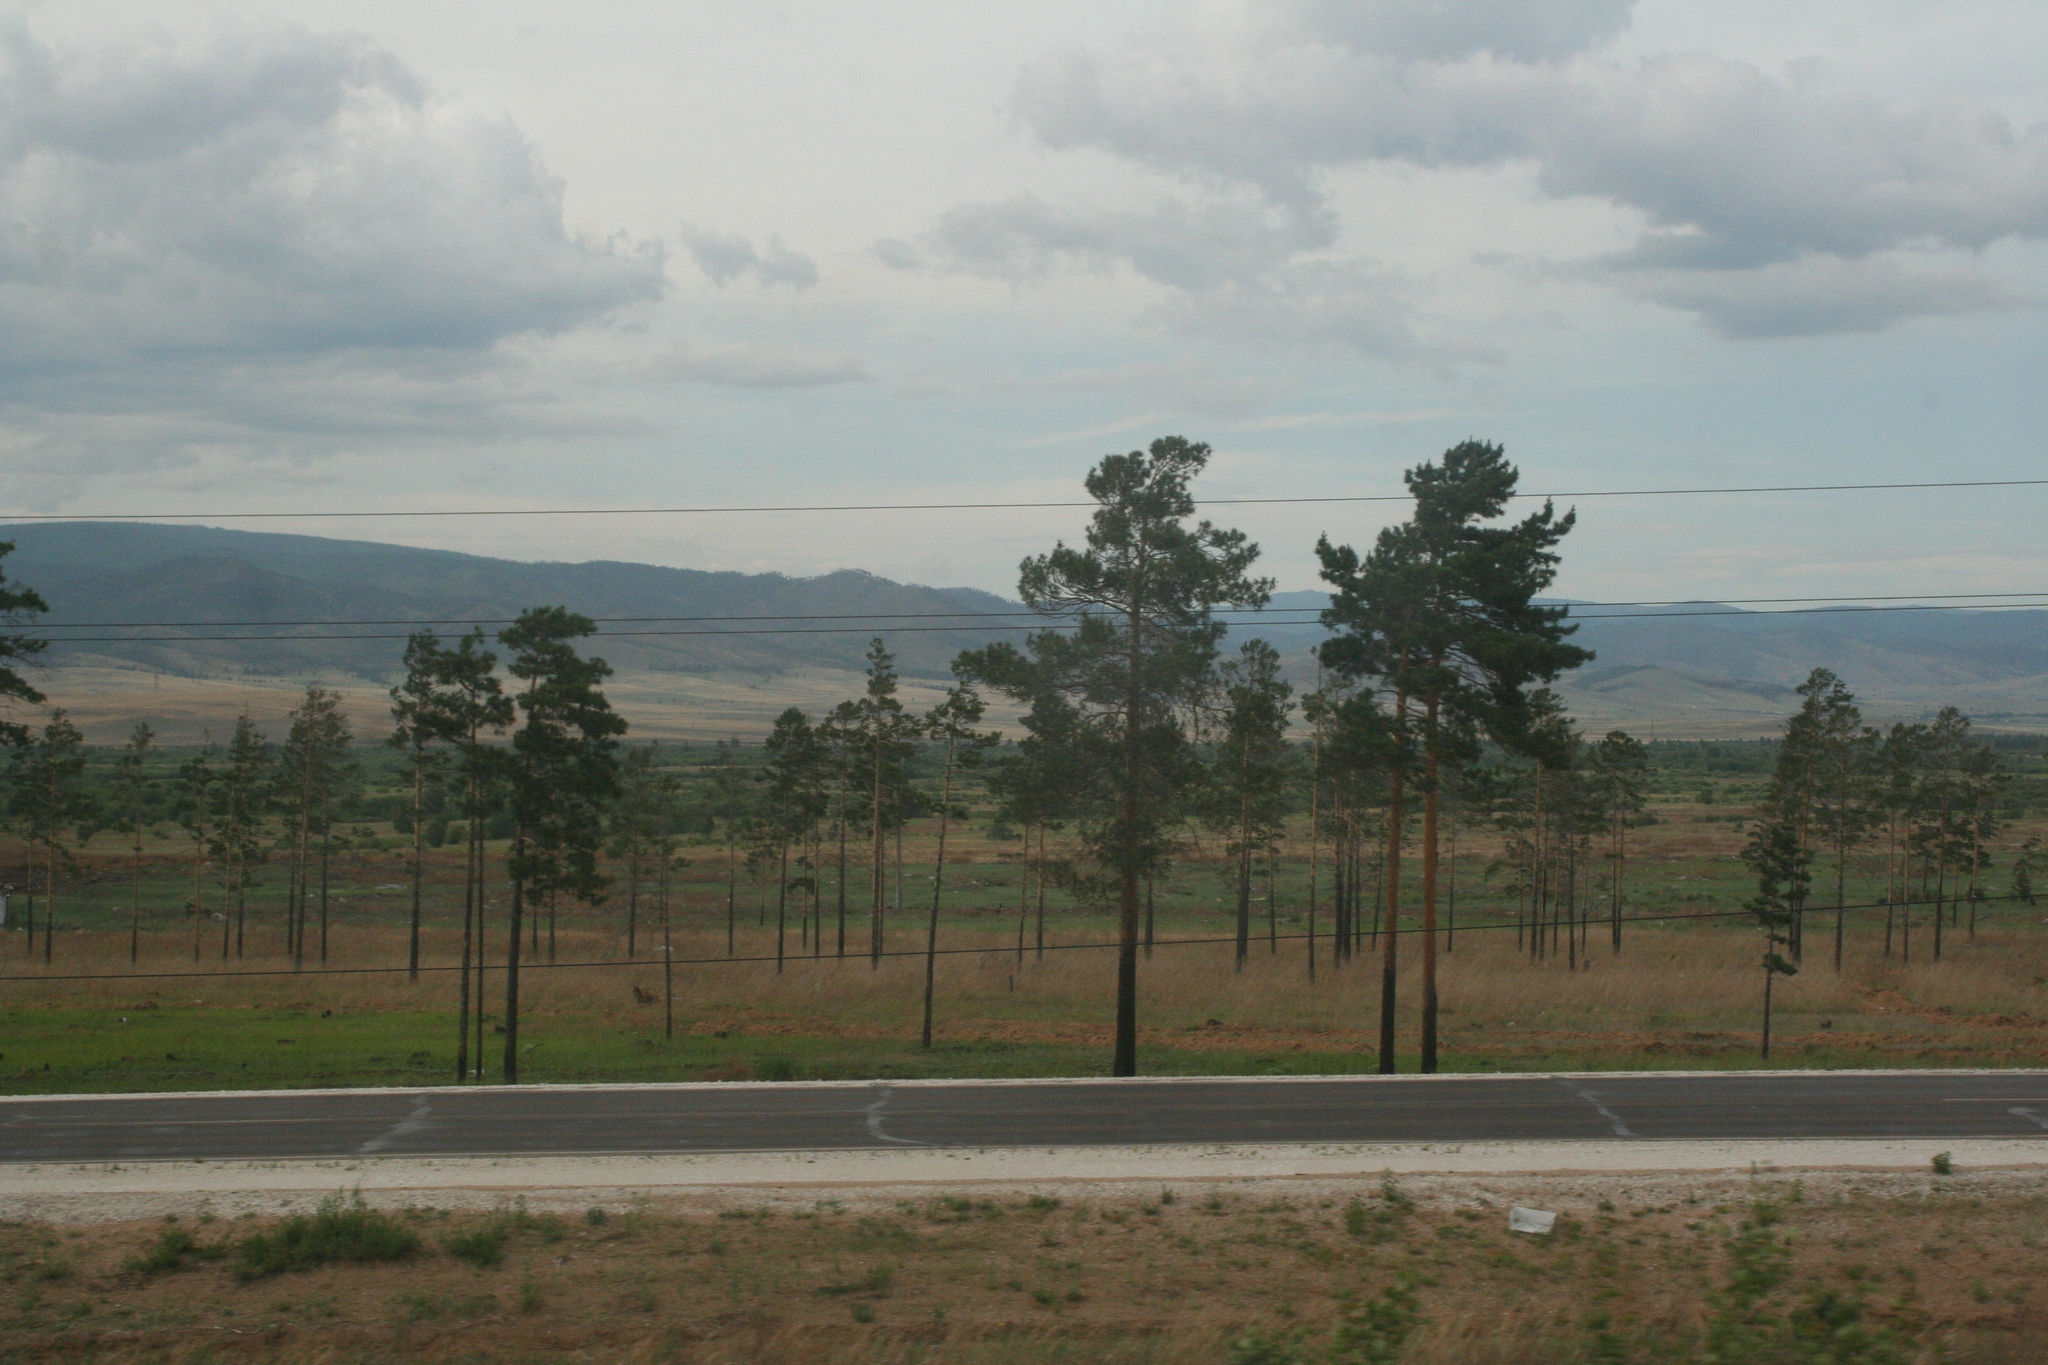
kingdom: Plantae
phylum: Tracheophyta
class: Pinopsida
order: Pinales
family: Pinaceae
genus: Pinus
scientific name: Pinus sylvestris
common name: Scots pine
